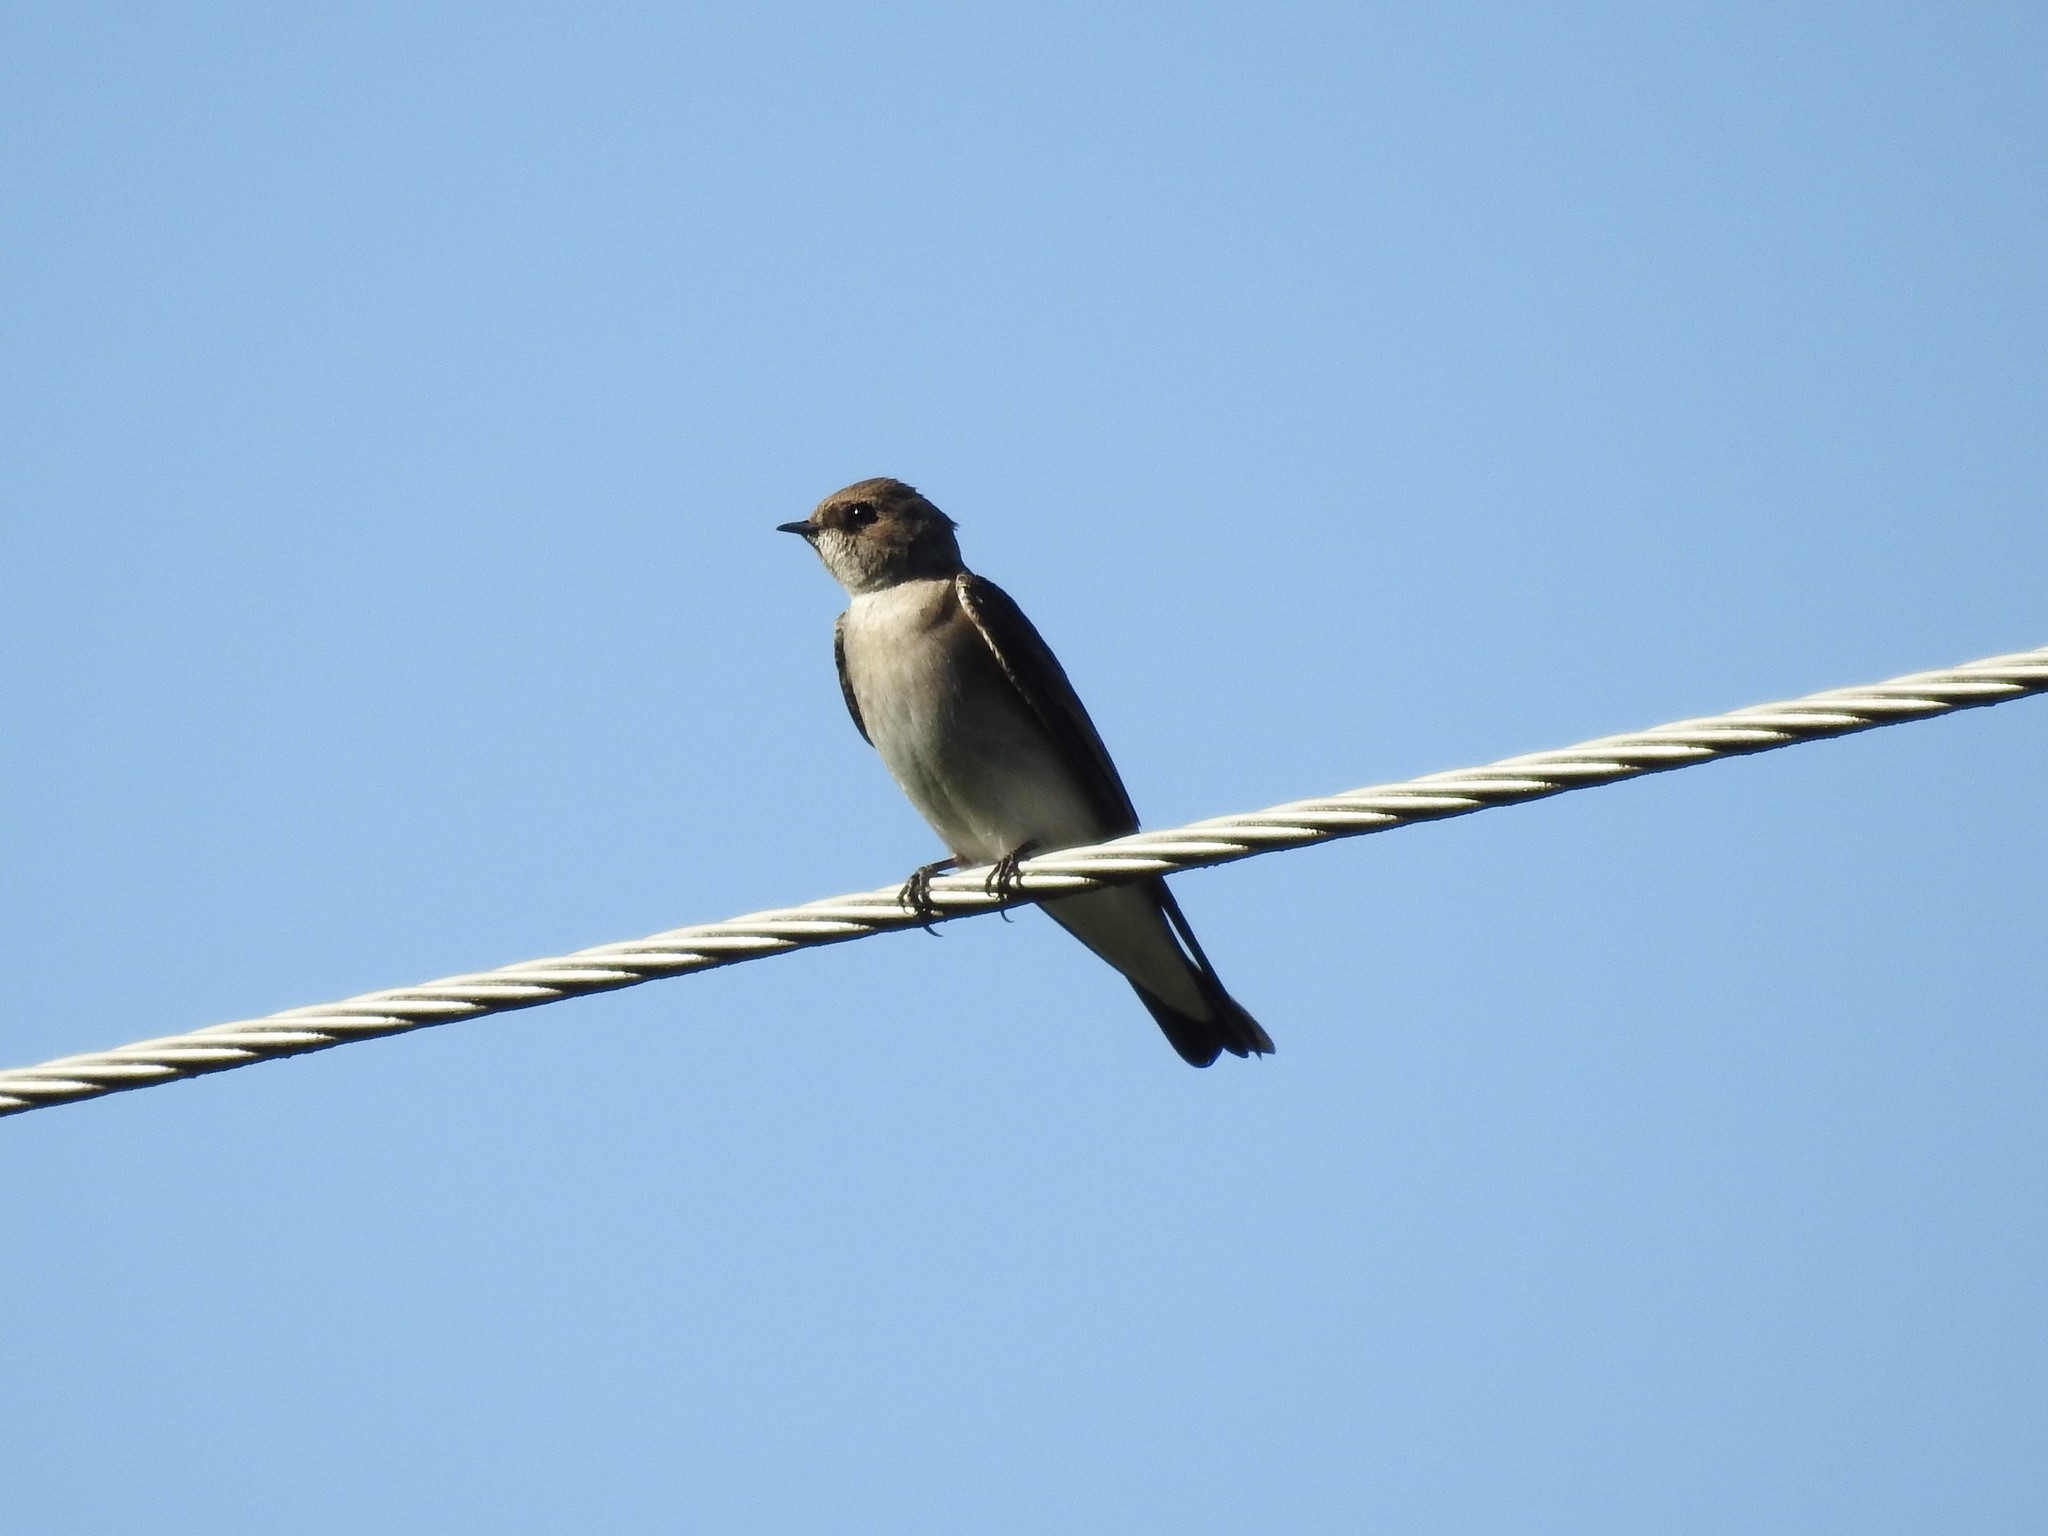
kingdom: Animalia
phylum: Chordata
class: Aves
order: Passeriformes
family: Hirundinidae
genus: Stelgidopteryx
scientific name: Stelgidopteryx serripennis
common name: Northern rough-winged swallow
